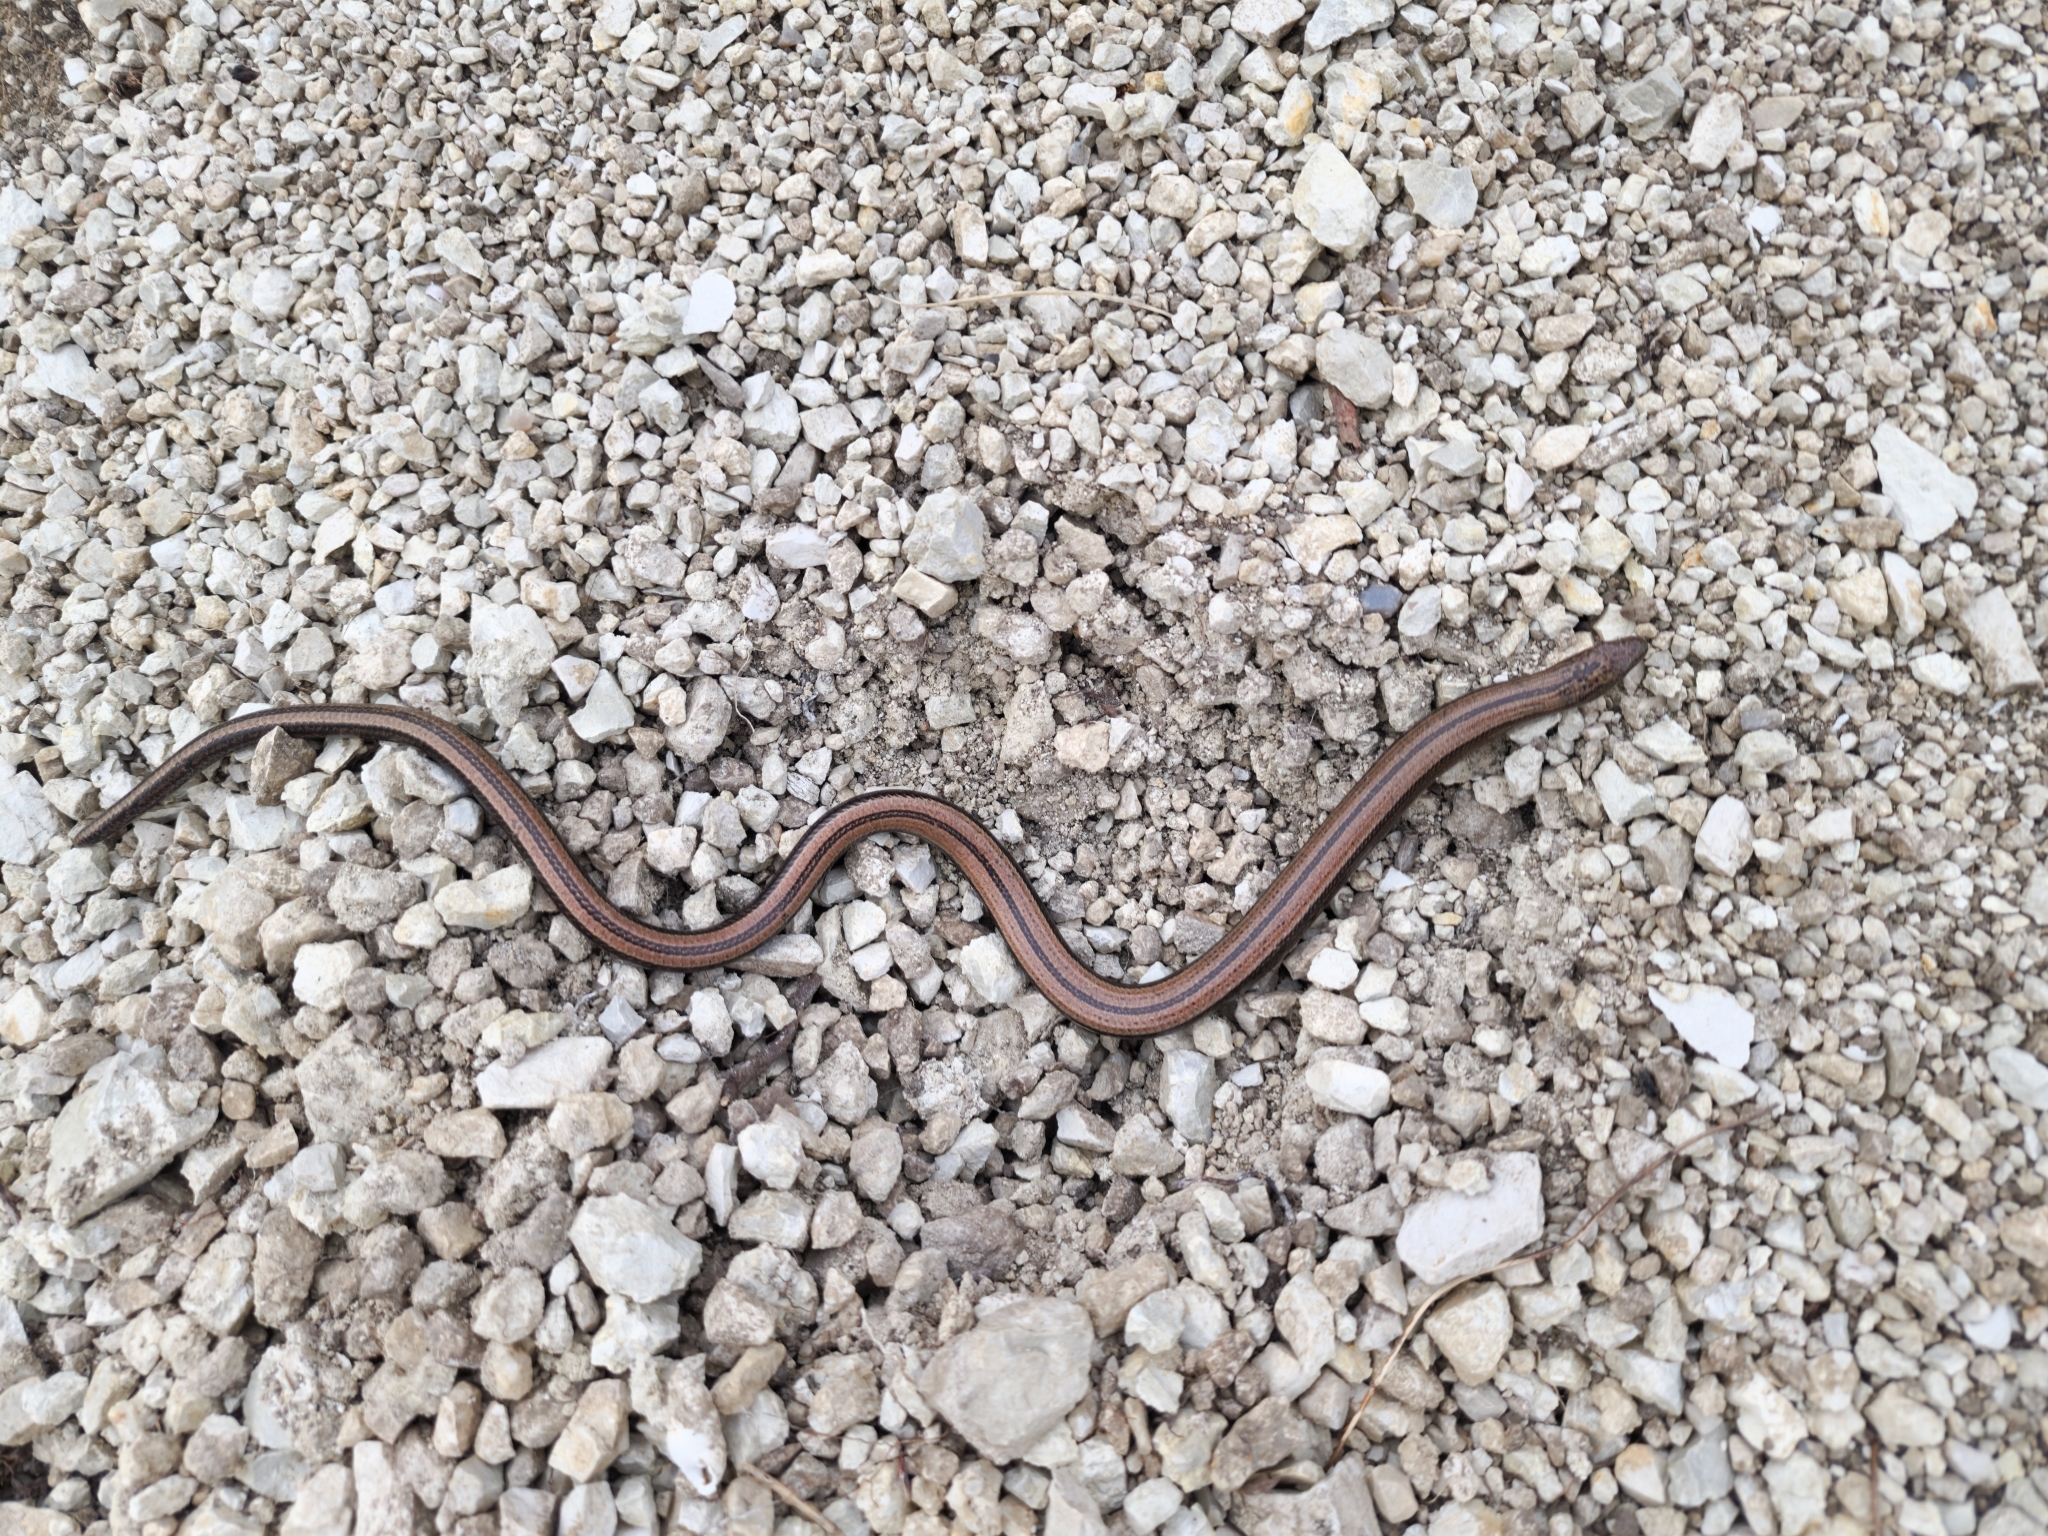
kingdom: Animalia
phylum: Chordata
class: Squamata
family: Anguidae
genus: Anguis
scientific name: Anguis colchica
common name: Slow worm
